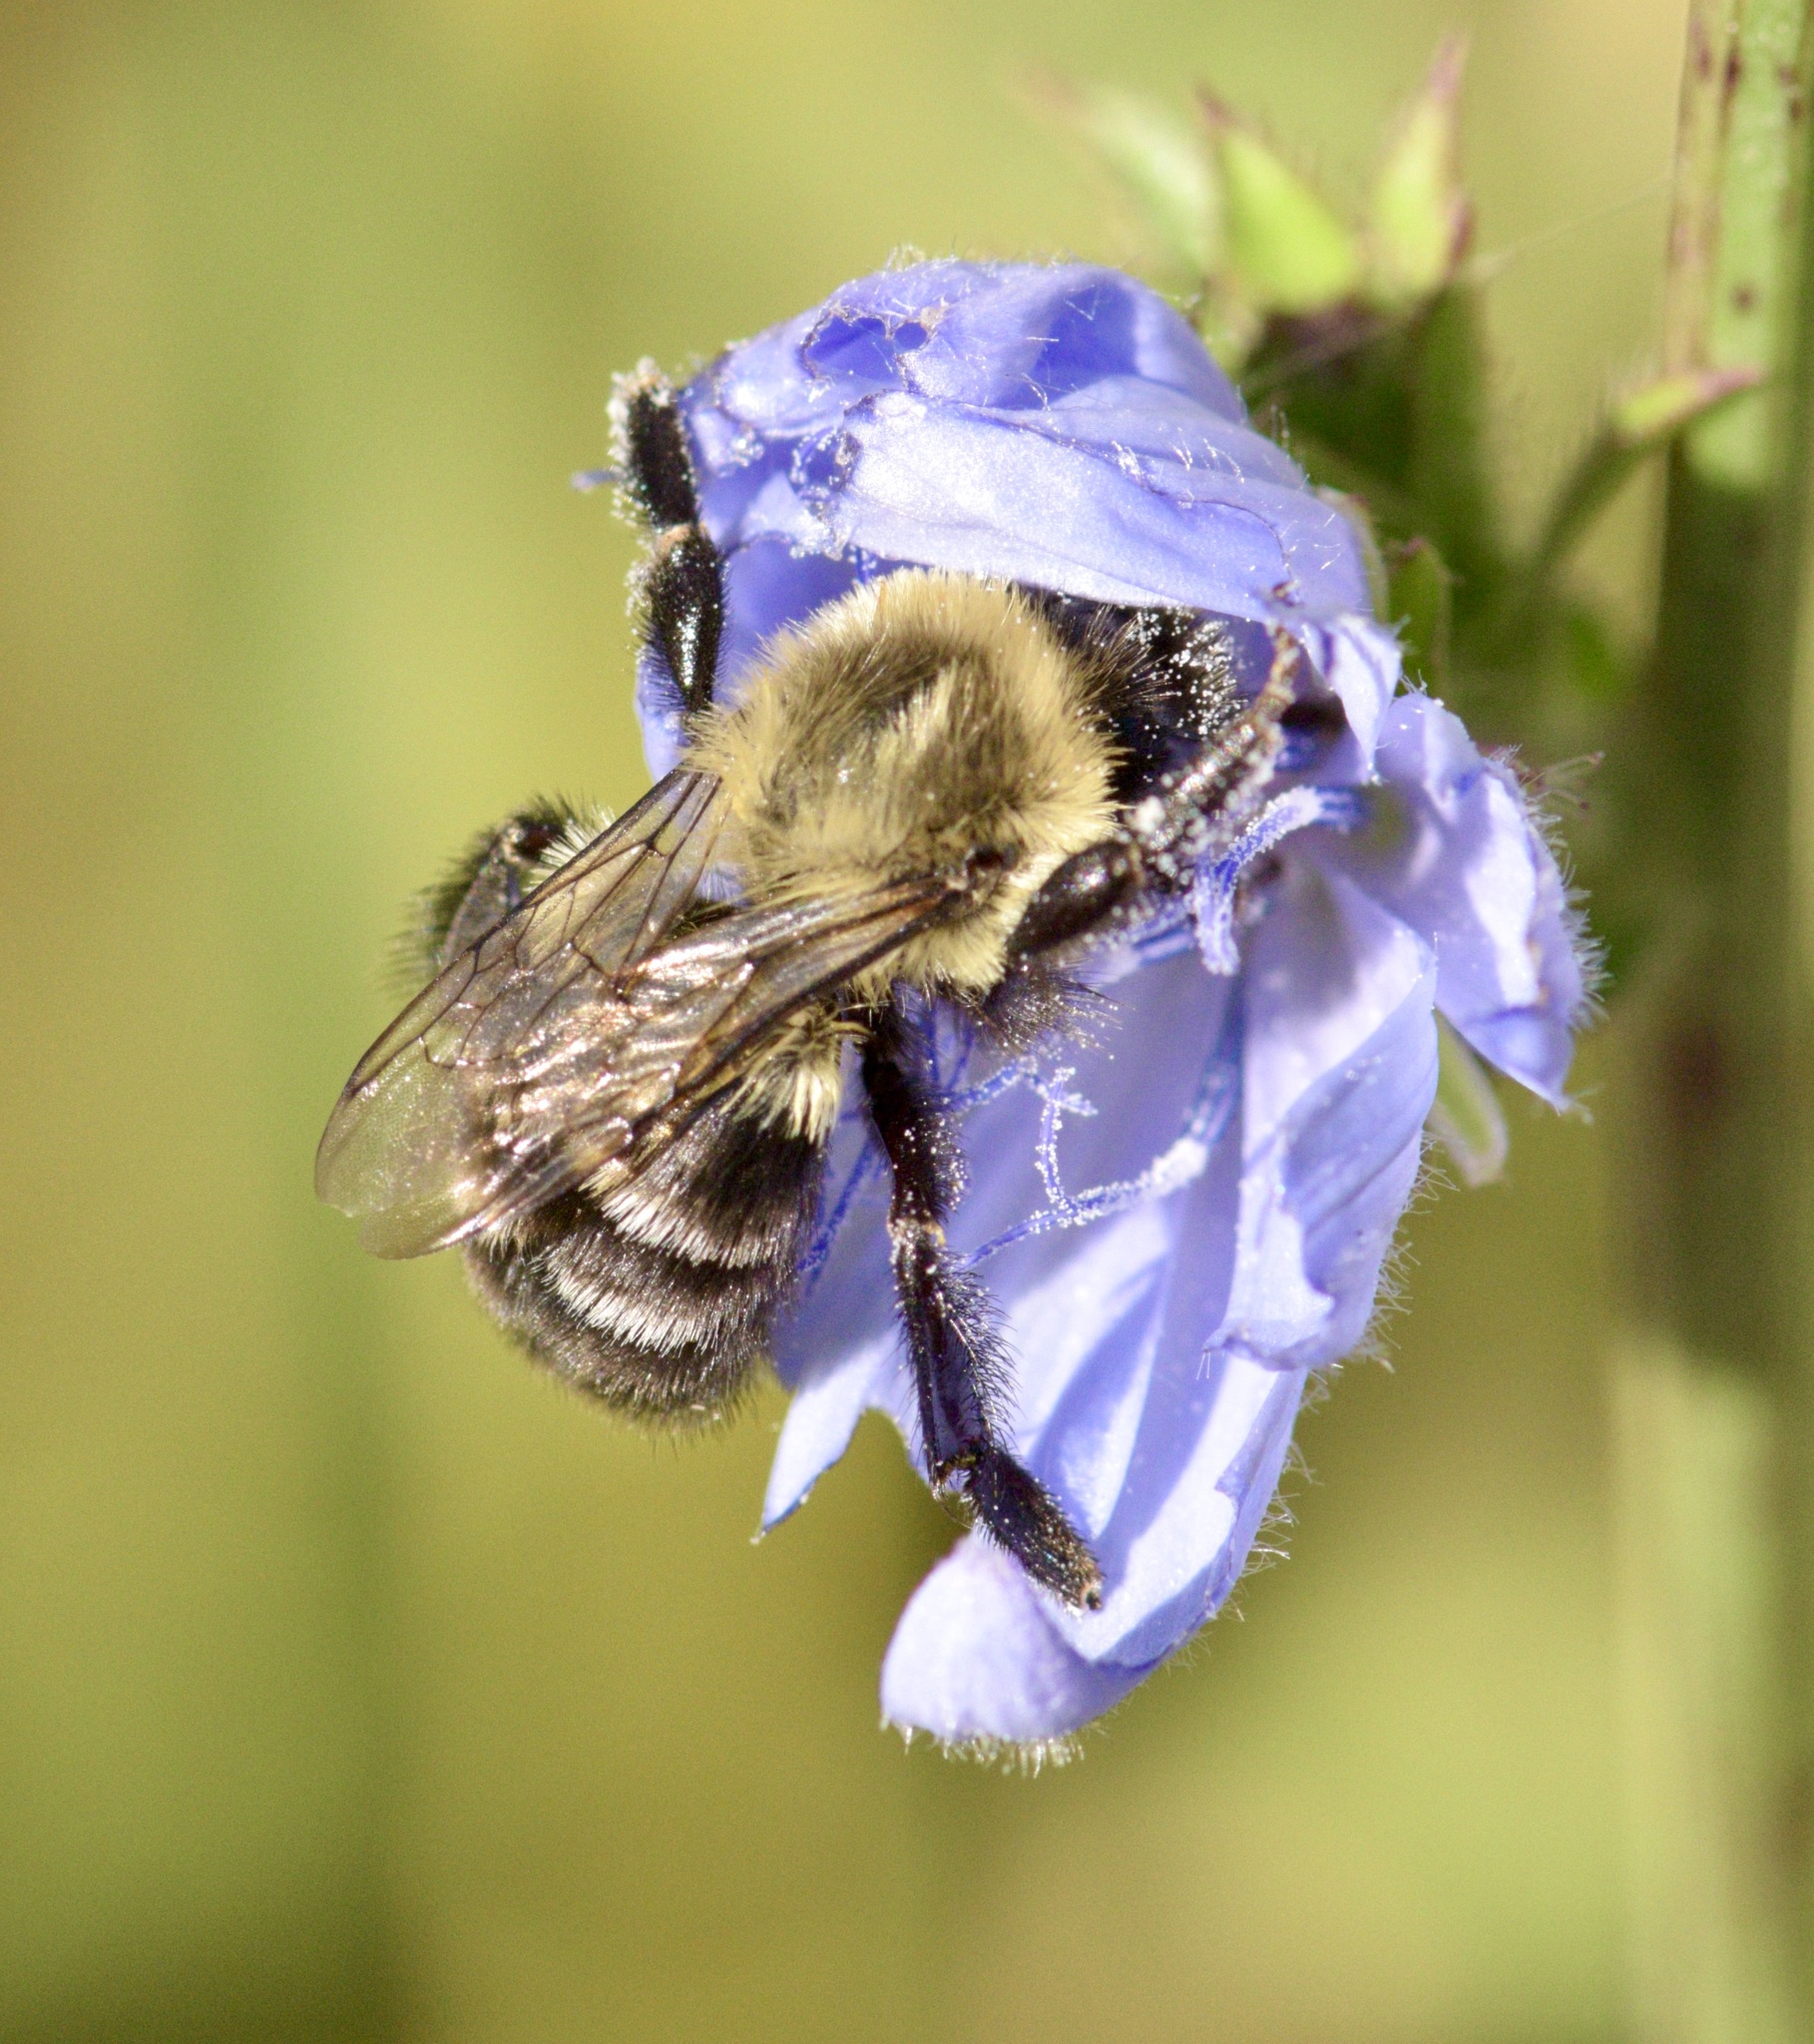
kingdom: Animalia
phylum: Arthropoda
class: Insecta
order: Hymenoptera
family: Apidae
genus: Bombus
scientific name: Bombus impatiens
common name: Common eastern bumble bee
